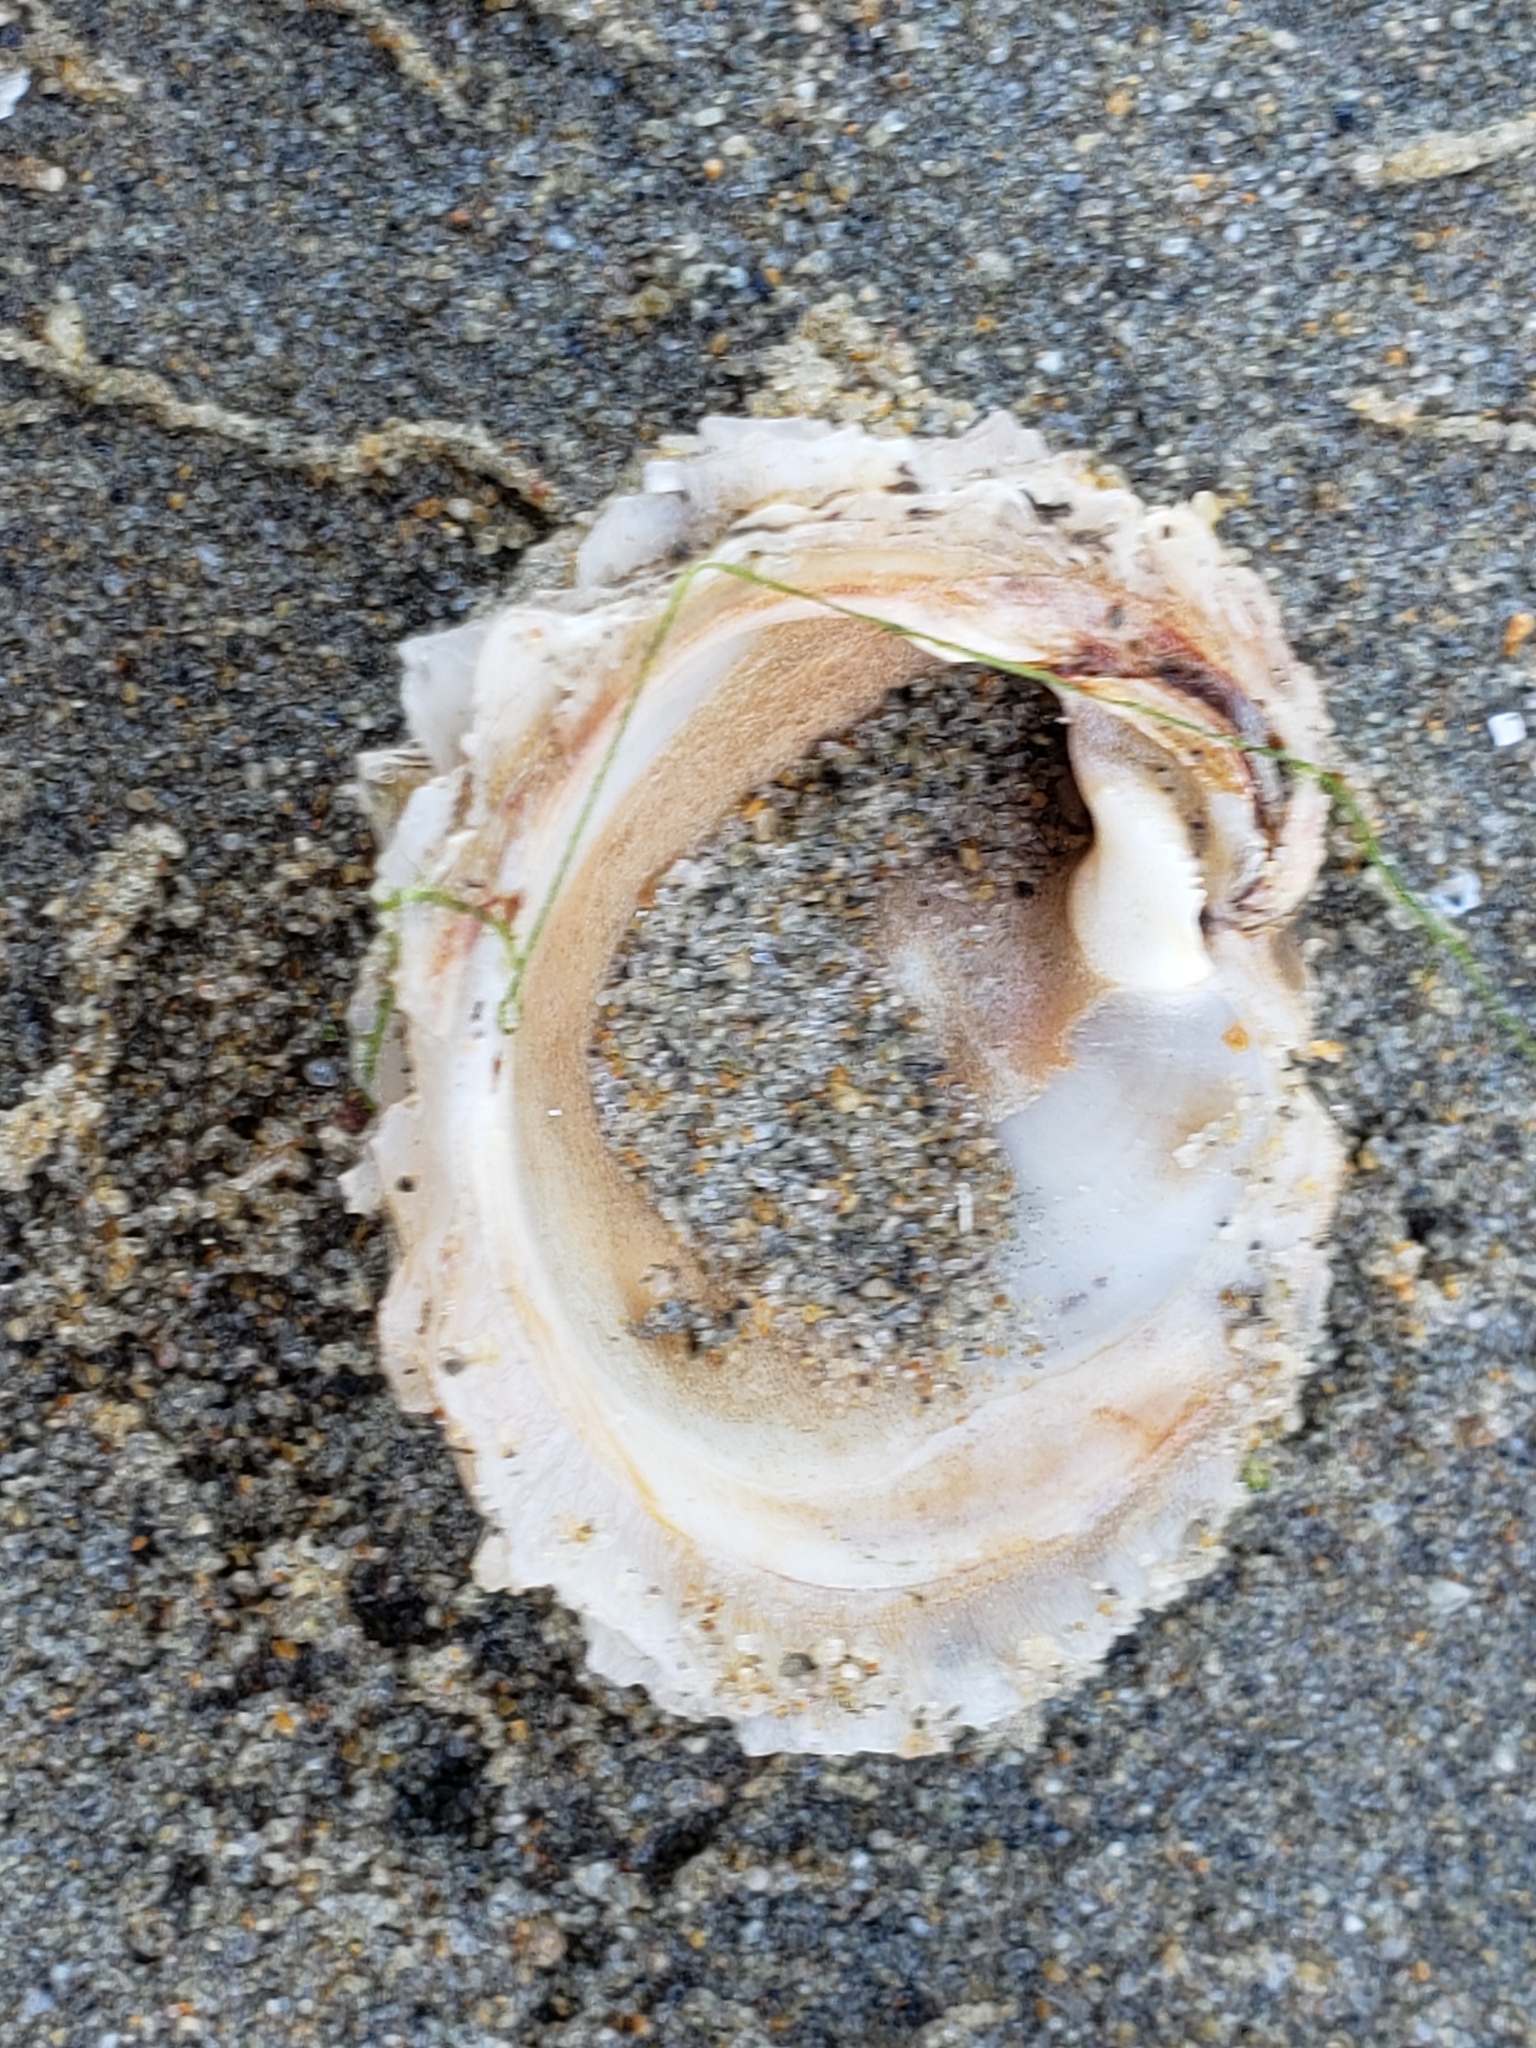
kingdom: Animalia
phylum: Mollusca
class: Bivalvia
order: Venerida
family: Chamidae
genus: Chama
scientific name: Chama arcana
